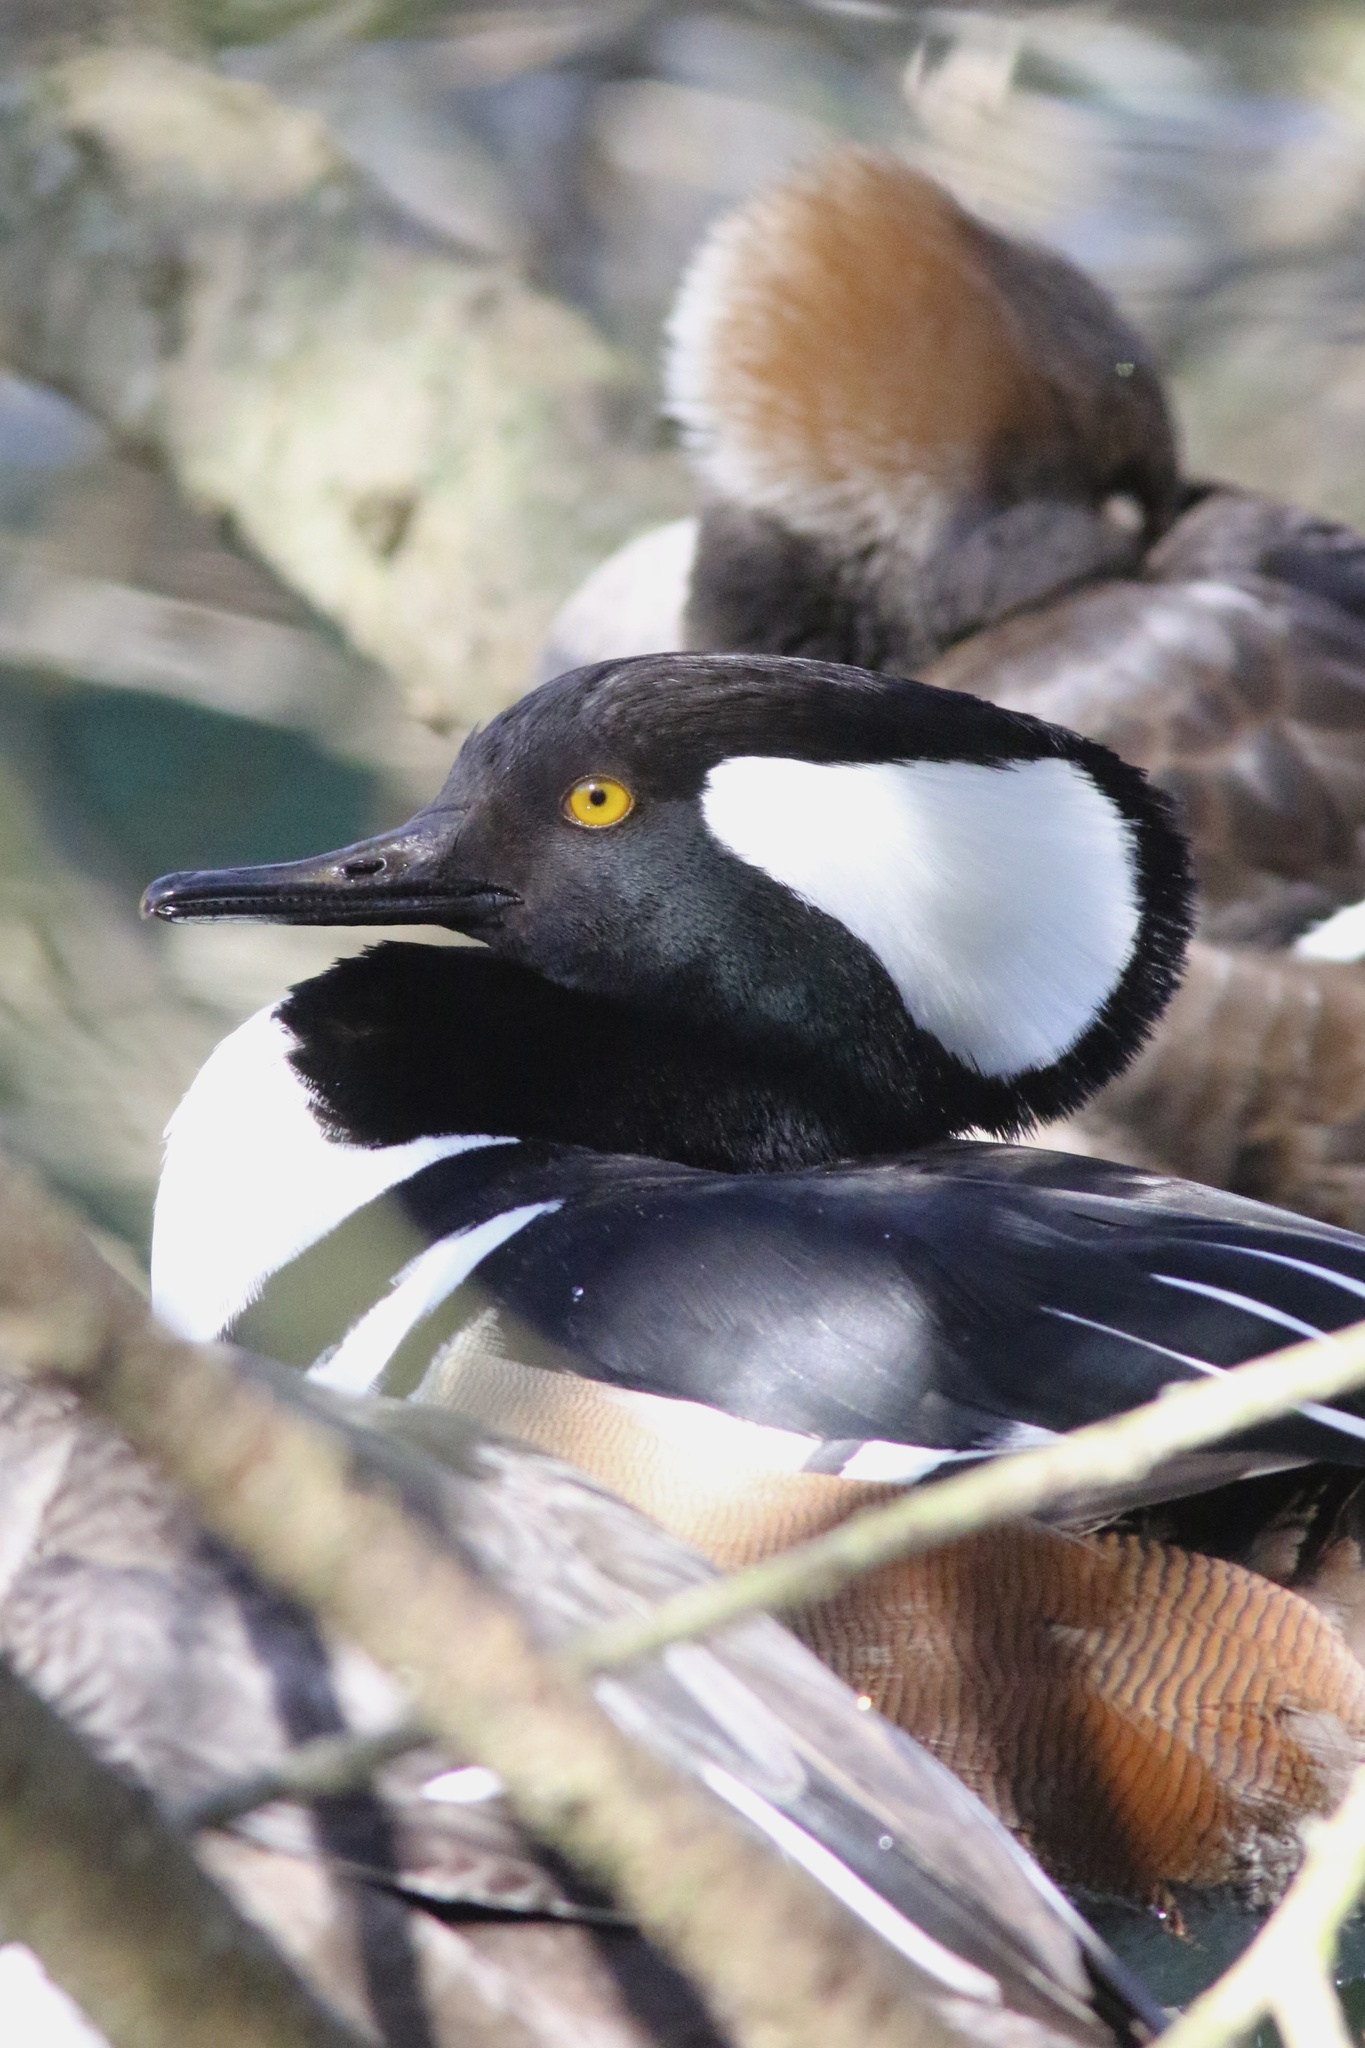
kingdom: Animalia
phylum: Chordata
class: Aves
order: Anseriformes
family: Anatidae
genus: Lophodytes
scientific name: Lophodytes cucullatus
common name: Hooded merganser
